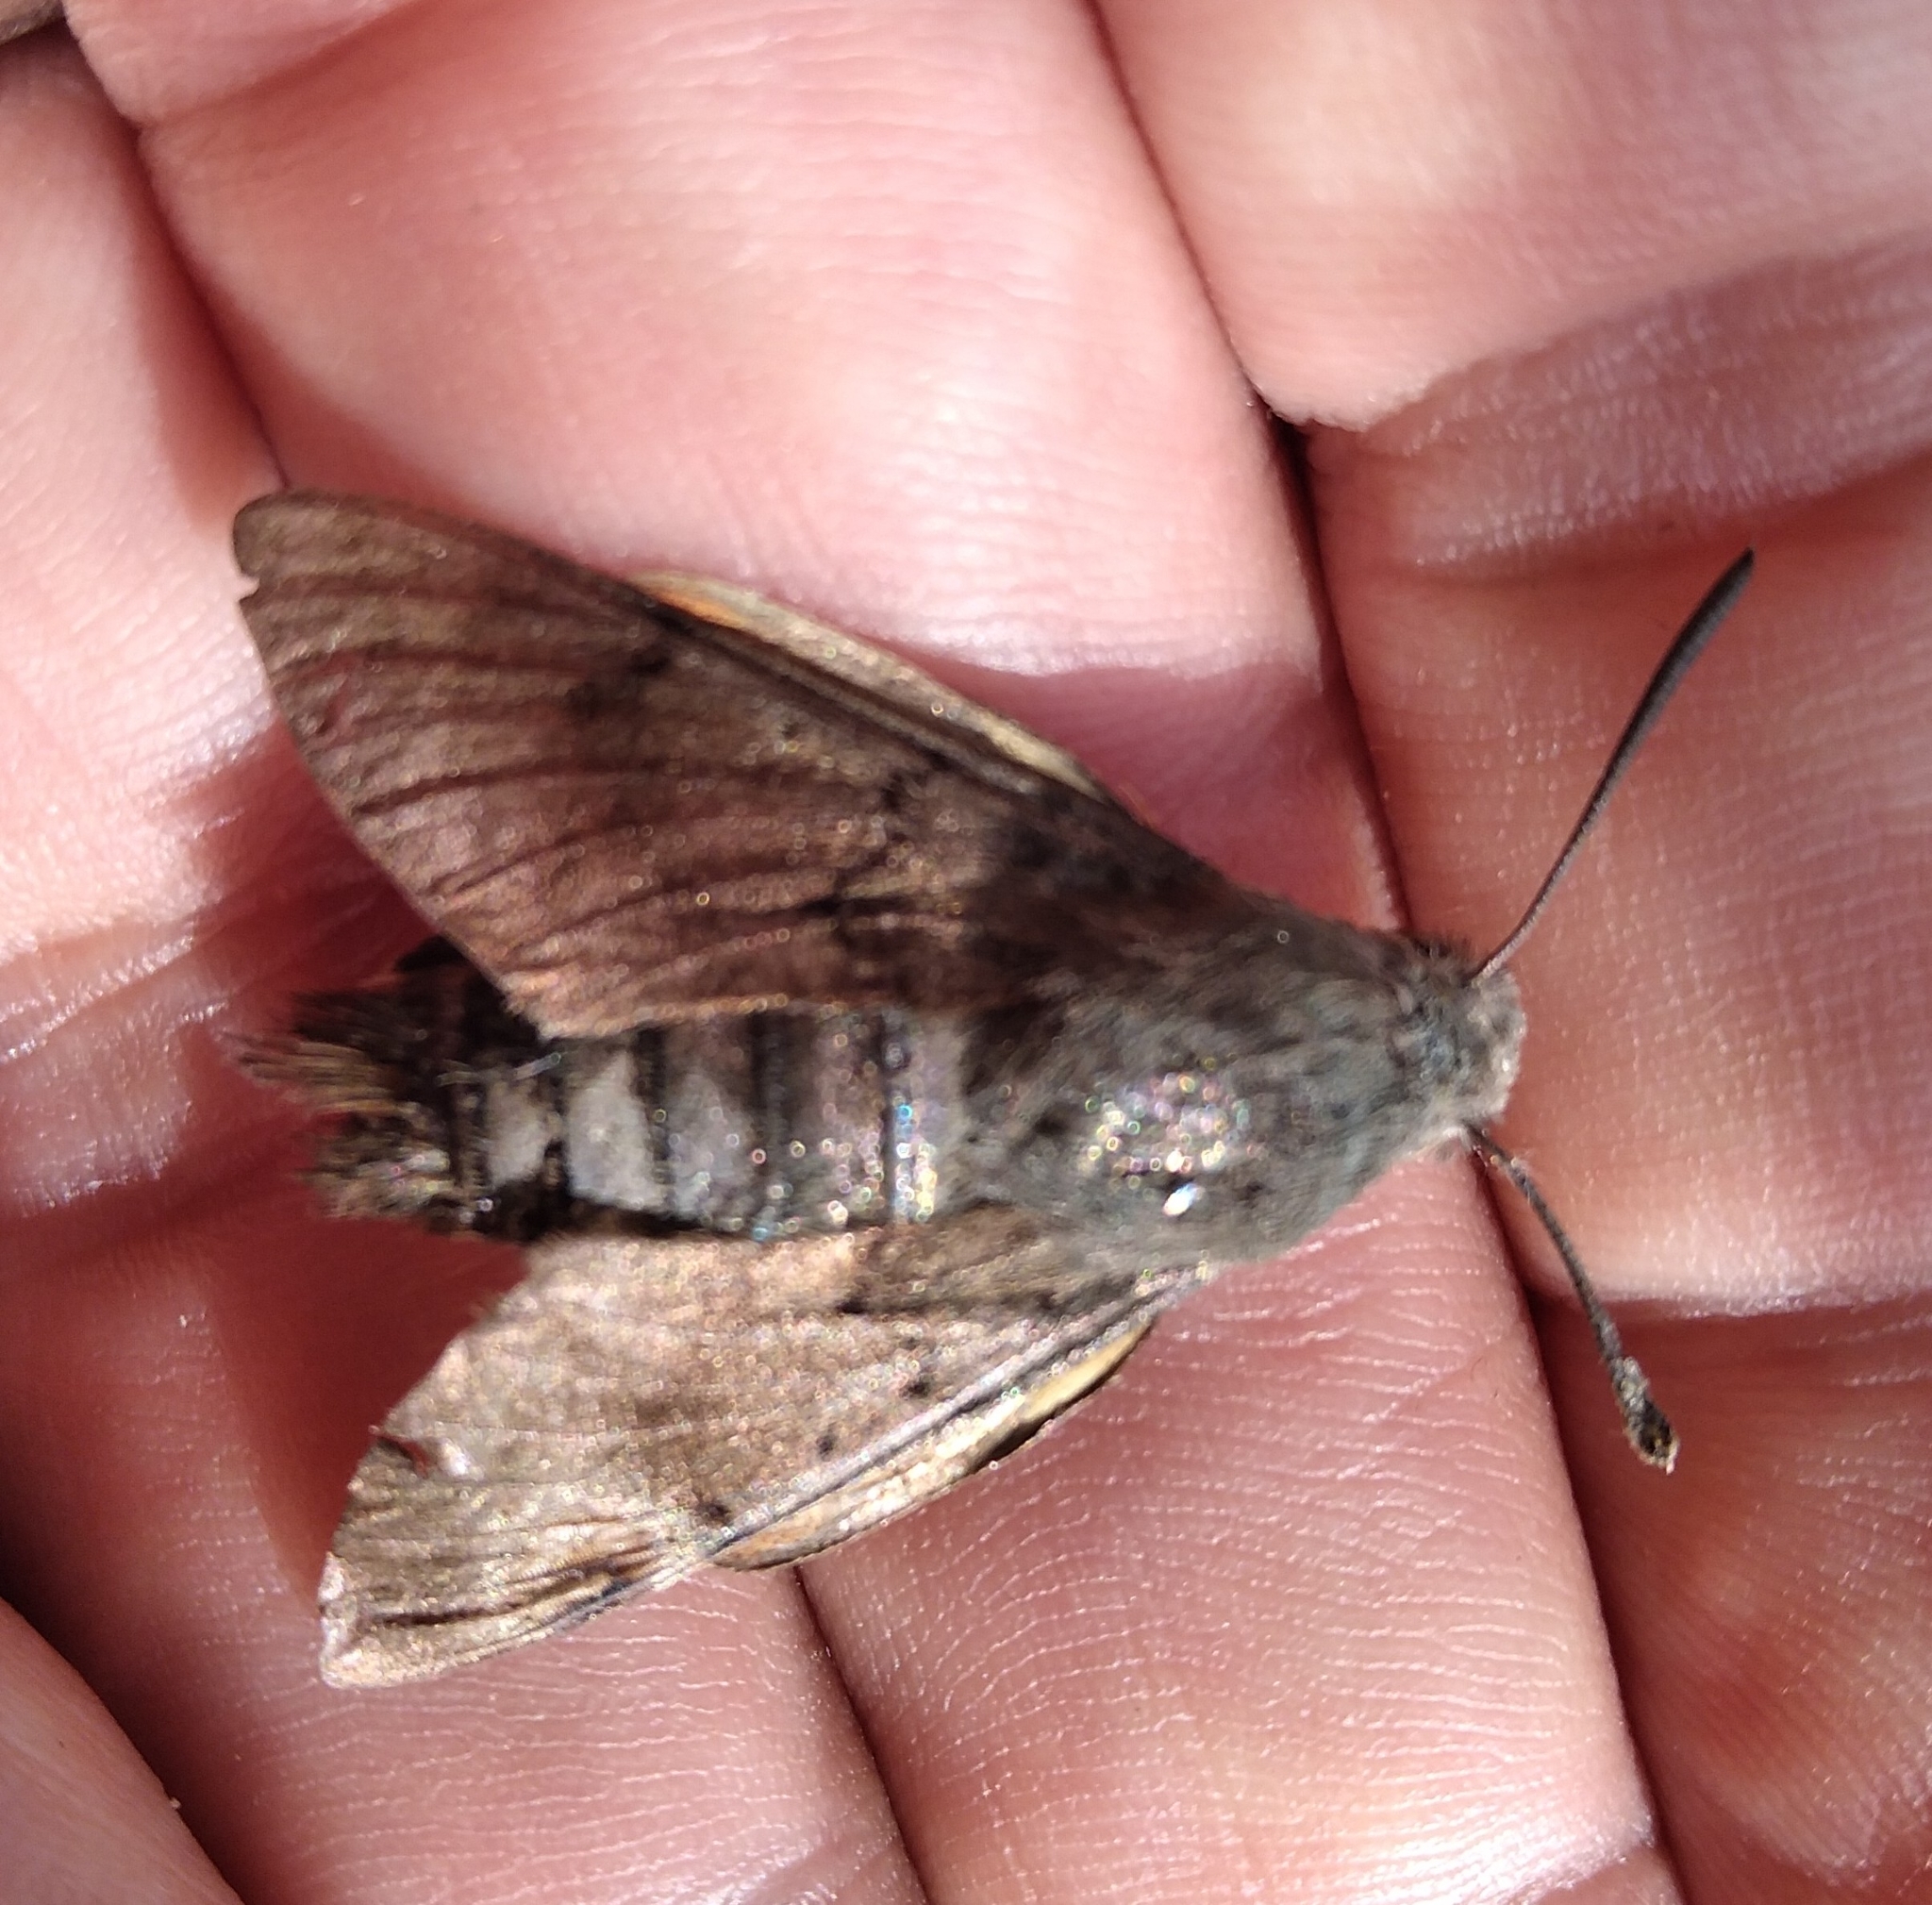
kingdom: Animalia
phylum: Arthropoda
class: Insecta
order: Lepidoptera
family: Sphingidae
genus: Macroglossum
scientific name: Macroglossum stellatarum
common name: Humming-bird hawk-moth
